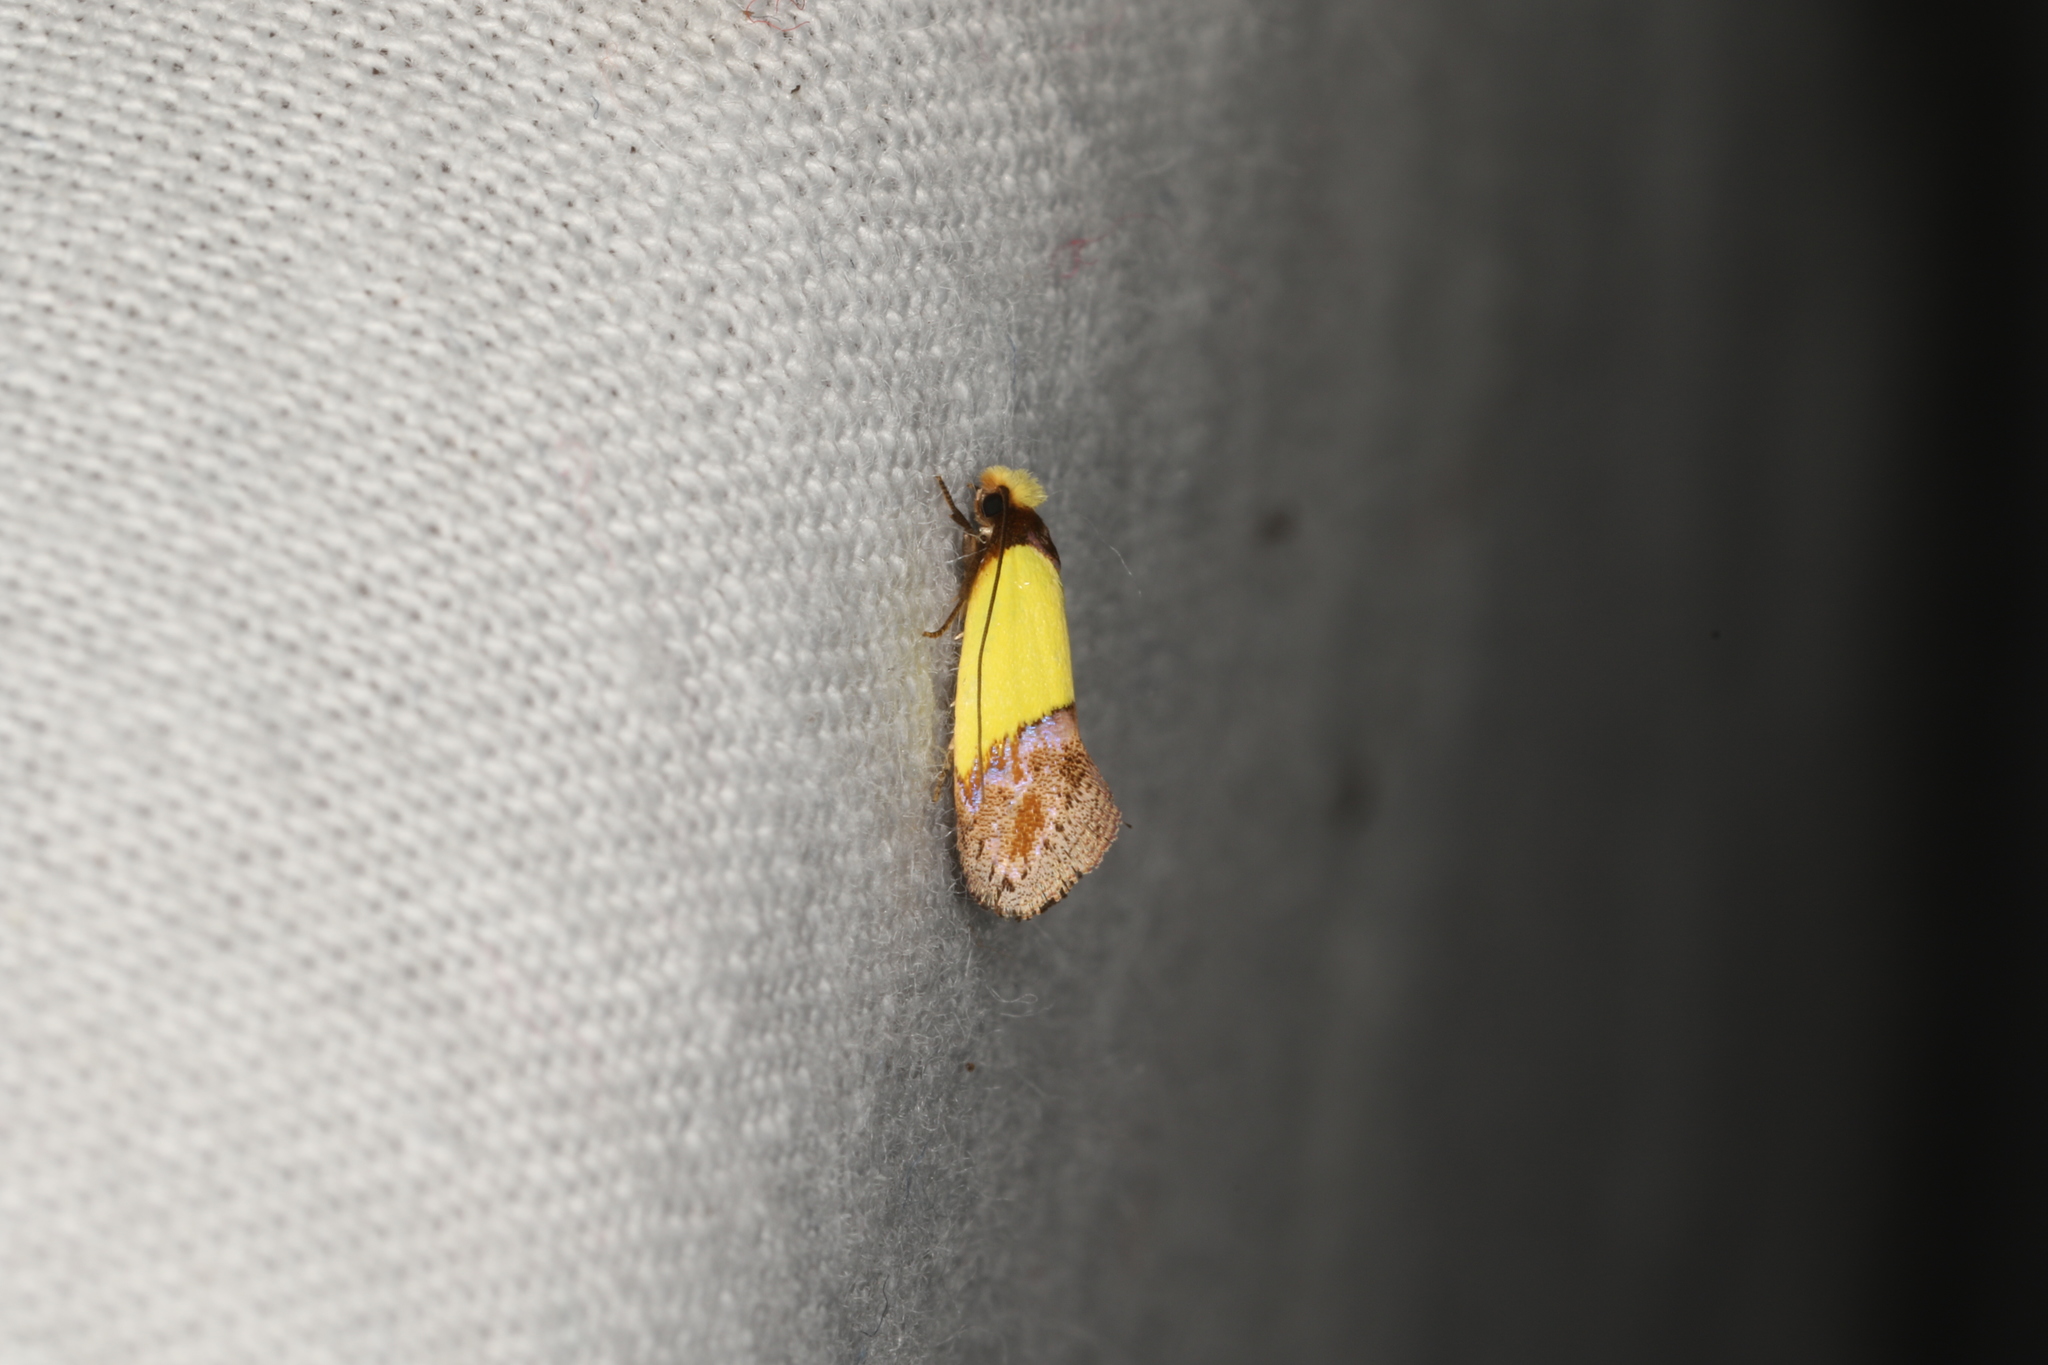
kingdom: Animalia
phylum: Arthropoda
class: Insecta
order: Lepidoptera
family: Tineidae
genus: Edosa
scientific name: Edosa xystidophora
